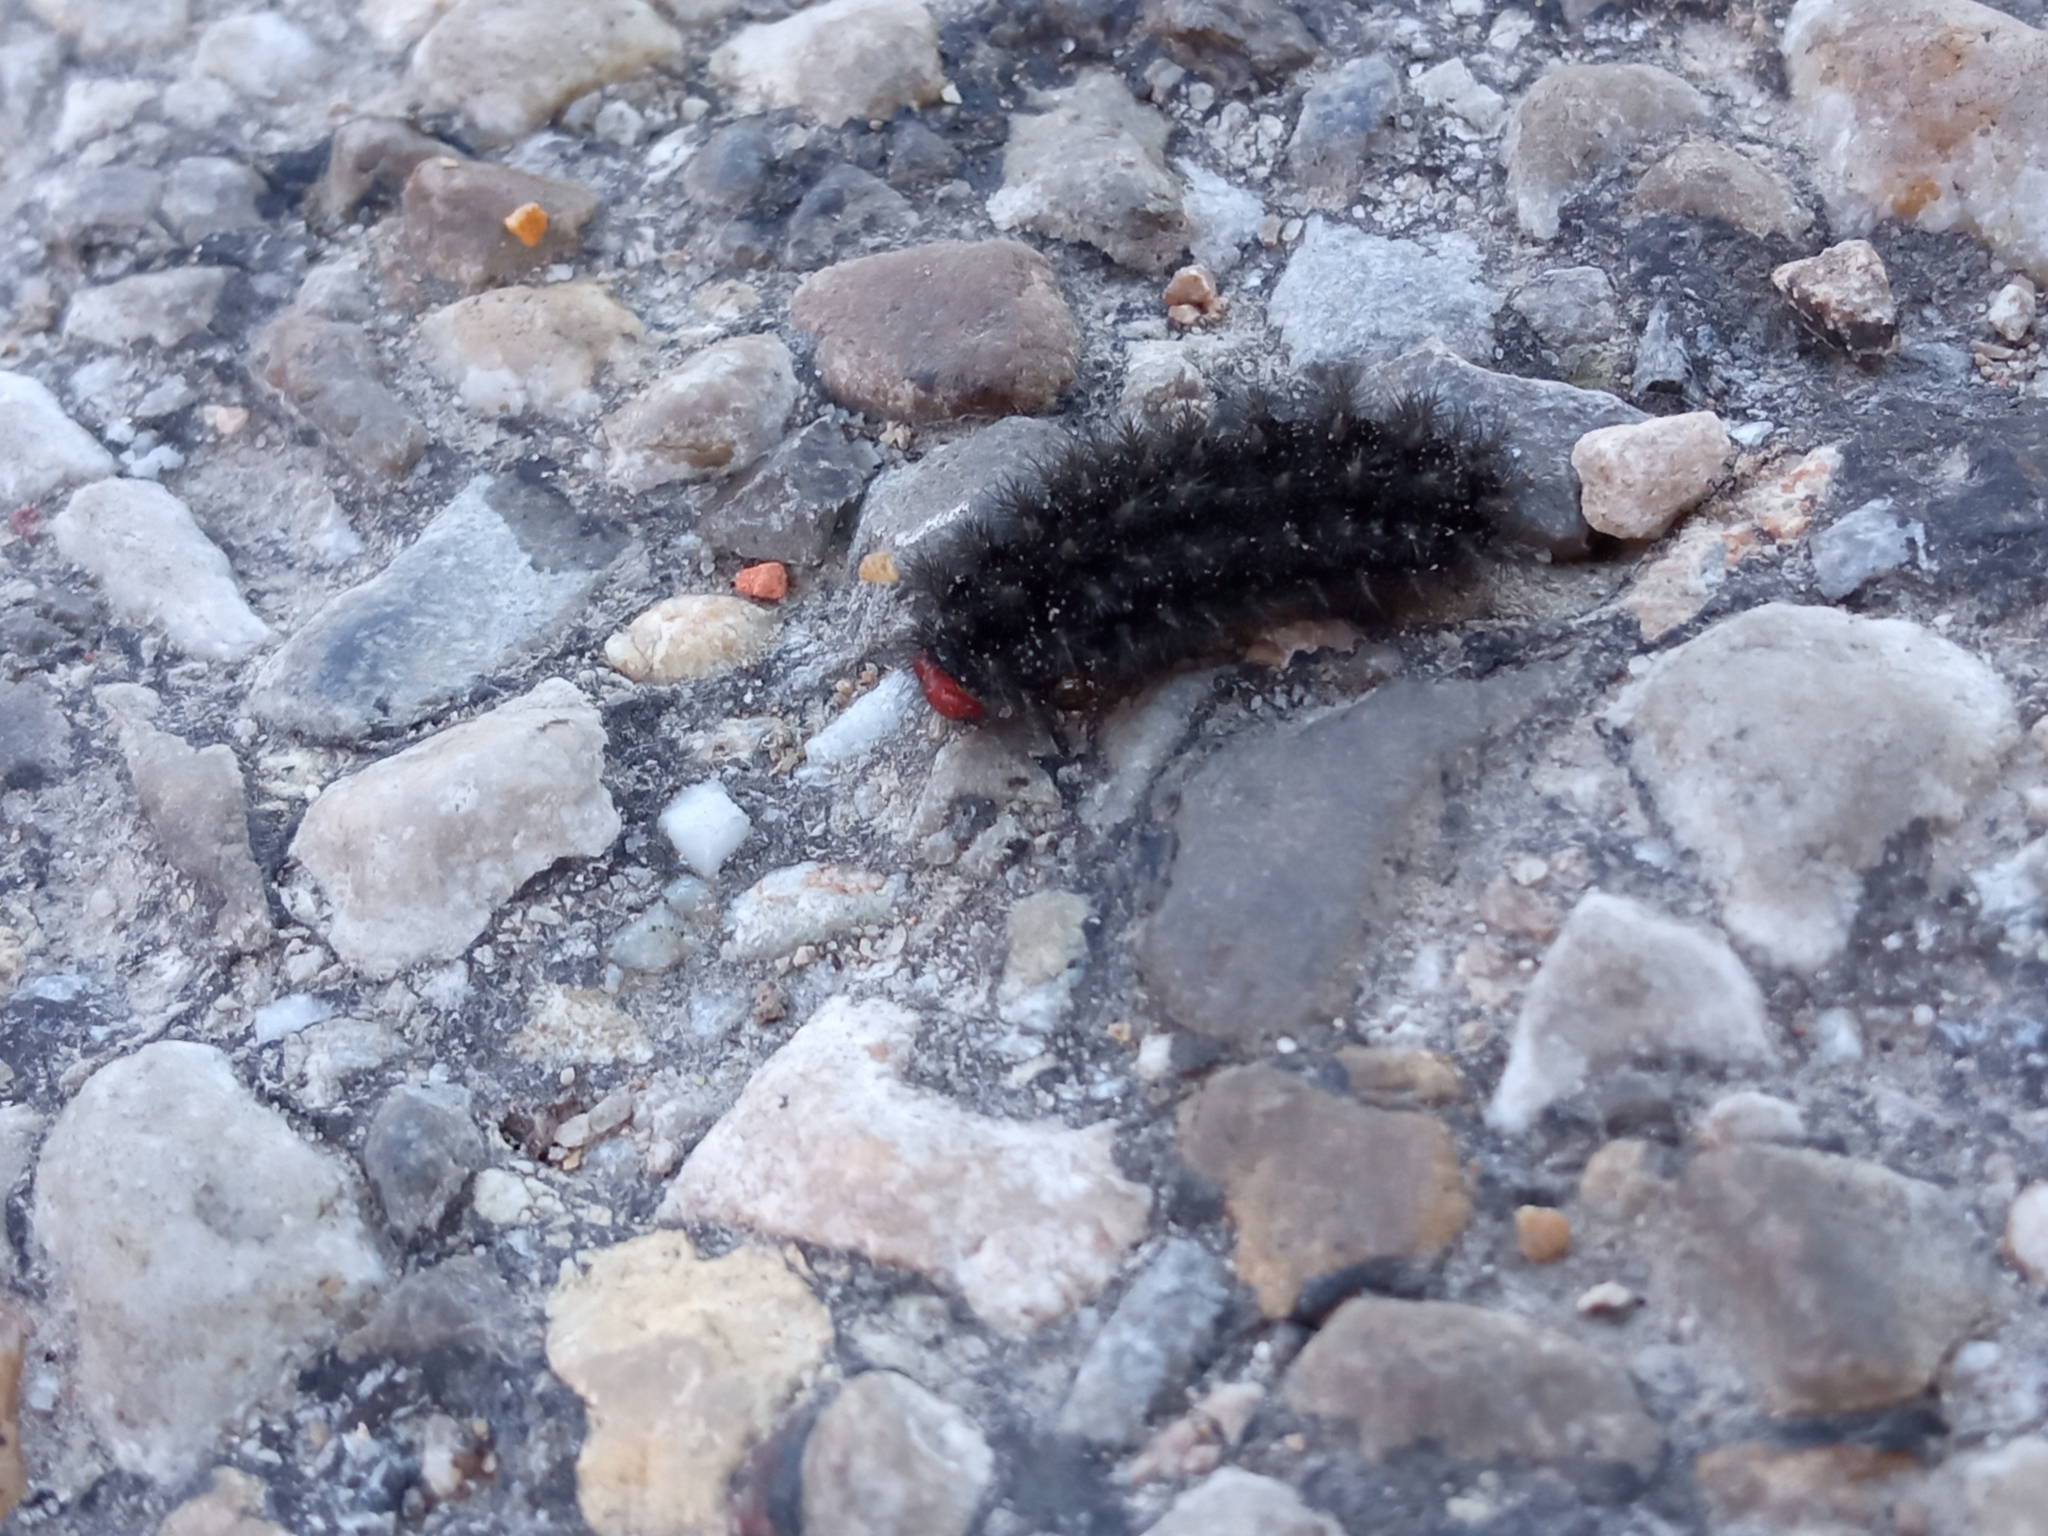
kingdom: Animalia
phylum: Arthropoda
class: Insecta
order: Lepidoptera
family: Nymphalidae
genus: Melitaea
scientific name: Melitaea cinxia
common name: Glanville fritillary
